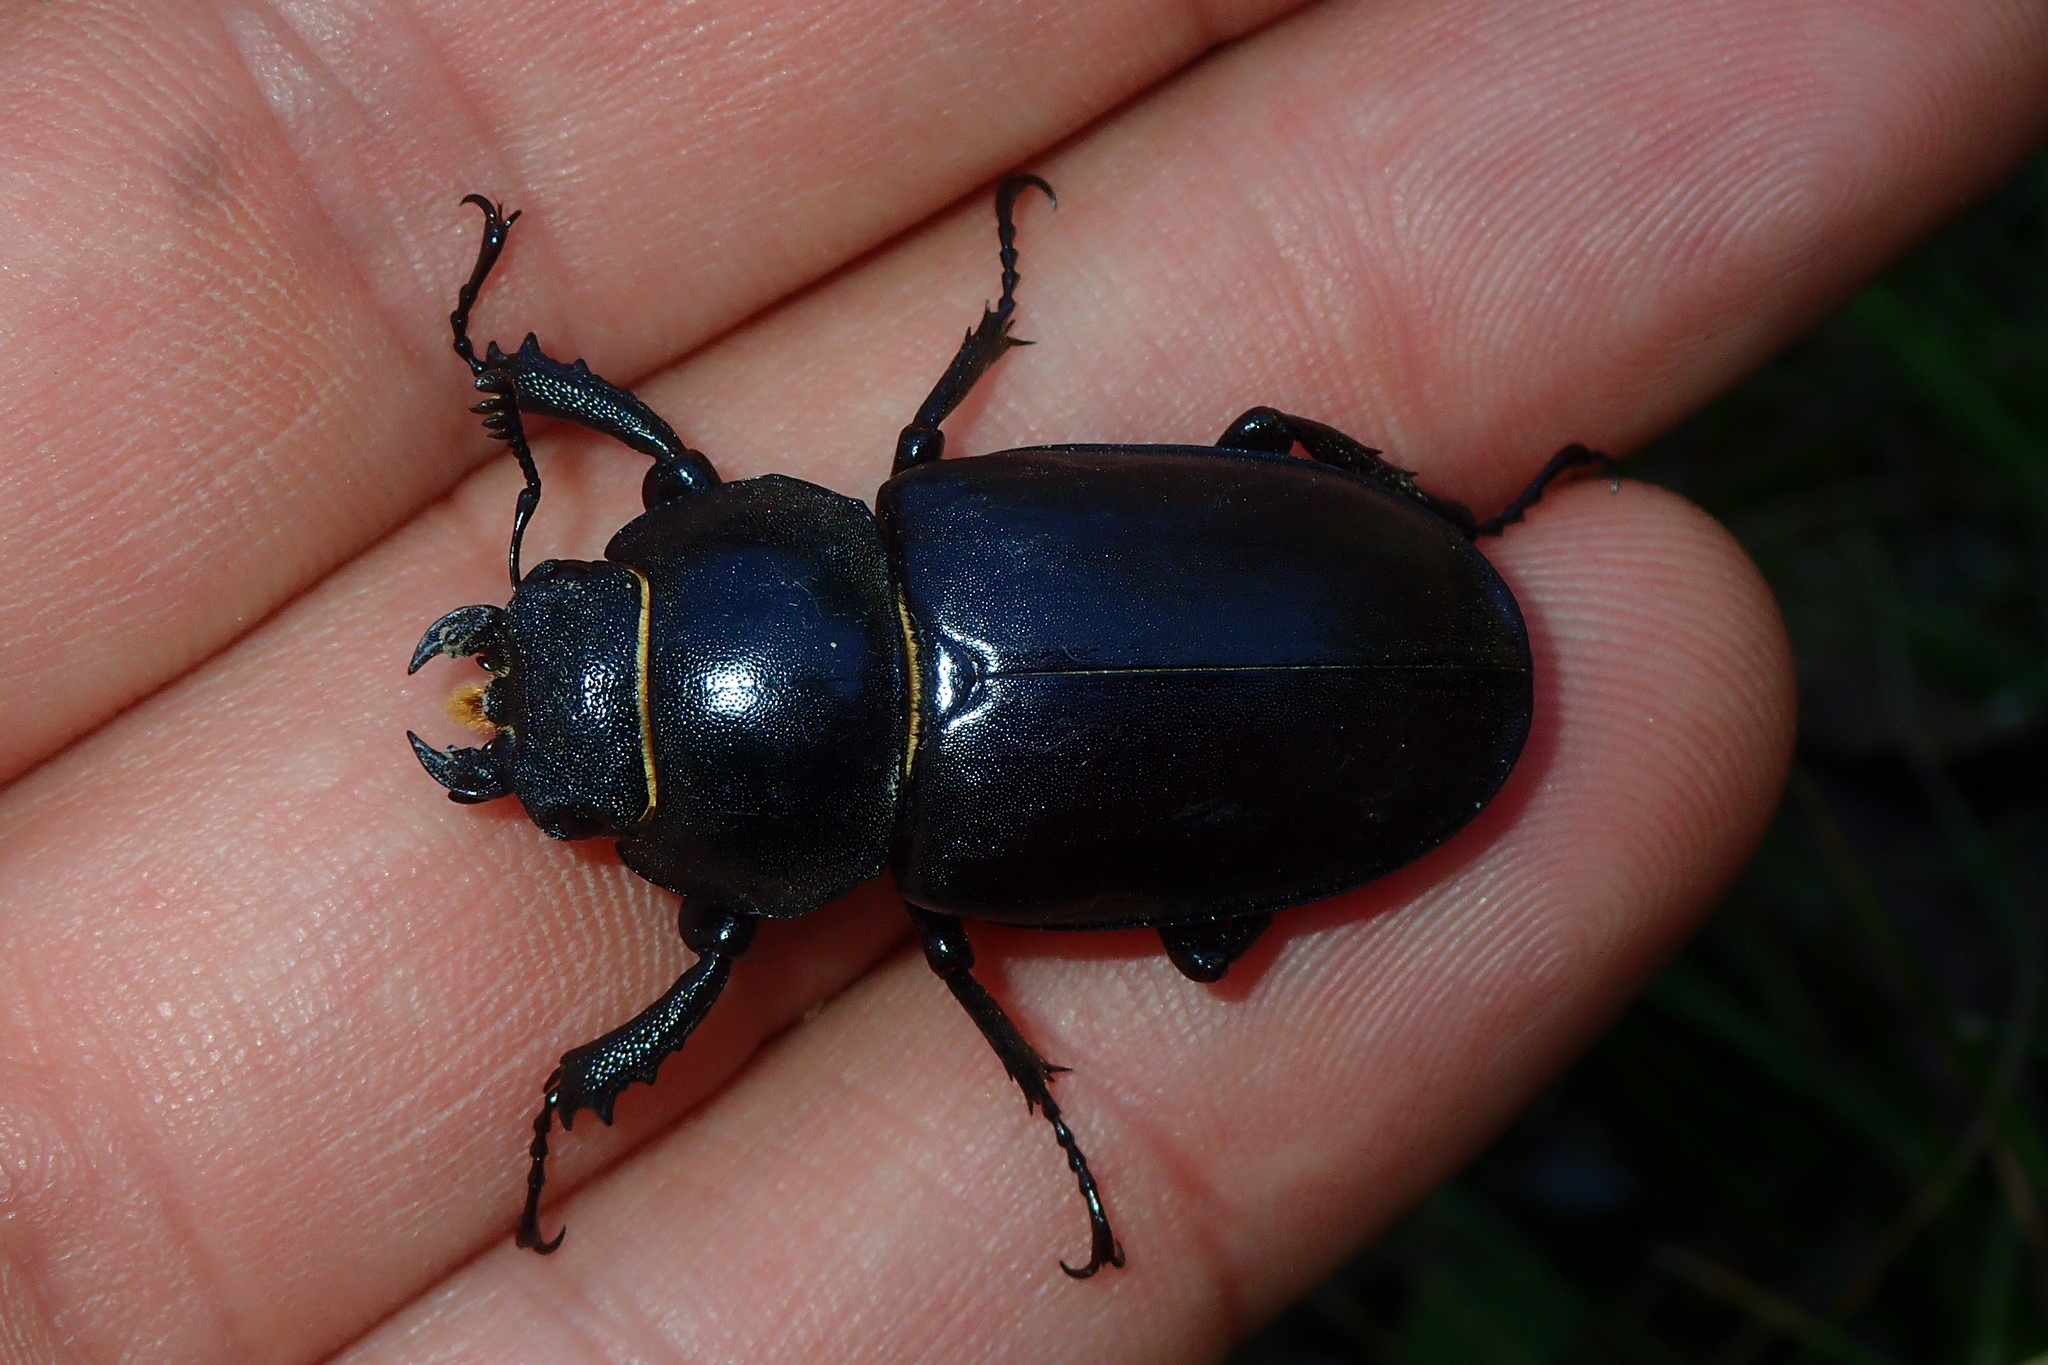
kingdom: Animalia
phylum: Arthropoda
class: Insecta
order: Coleoptera
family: Lucanidae
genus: Lucanus
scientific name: Lucanus cervus
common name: Stag beetle
